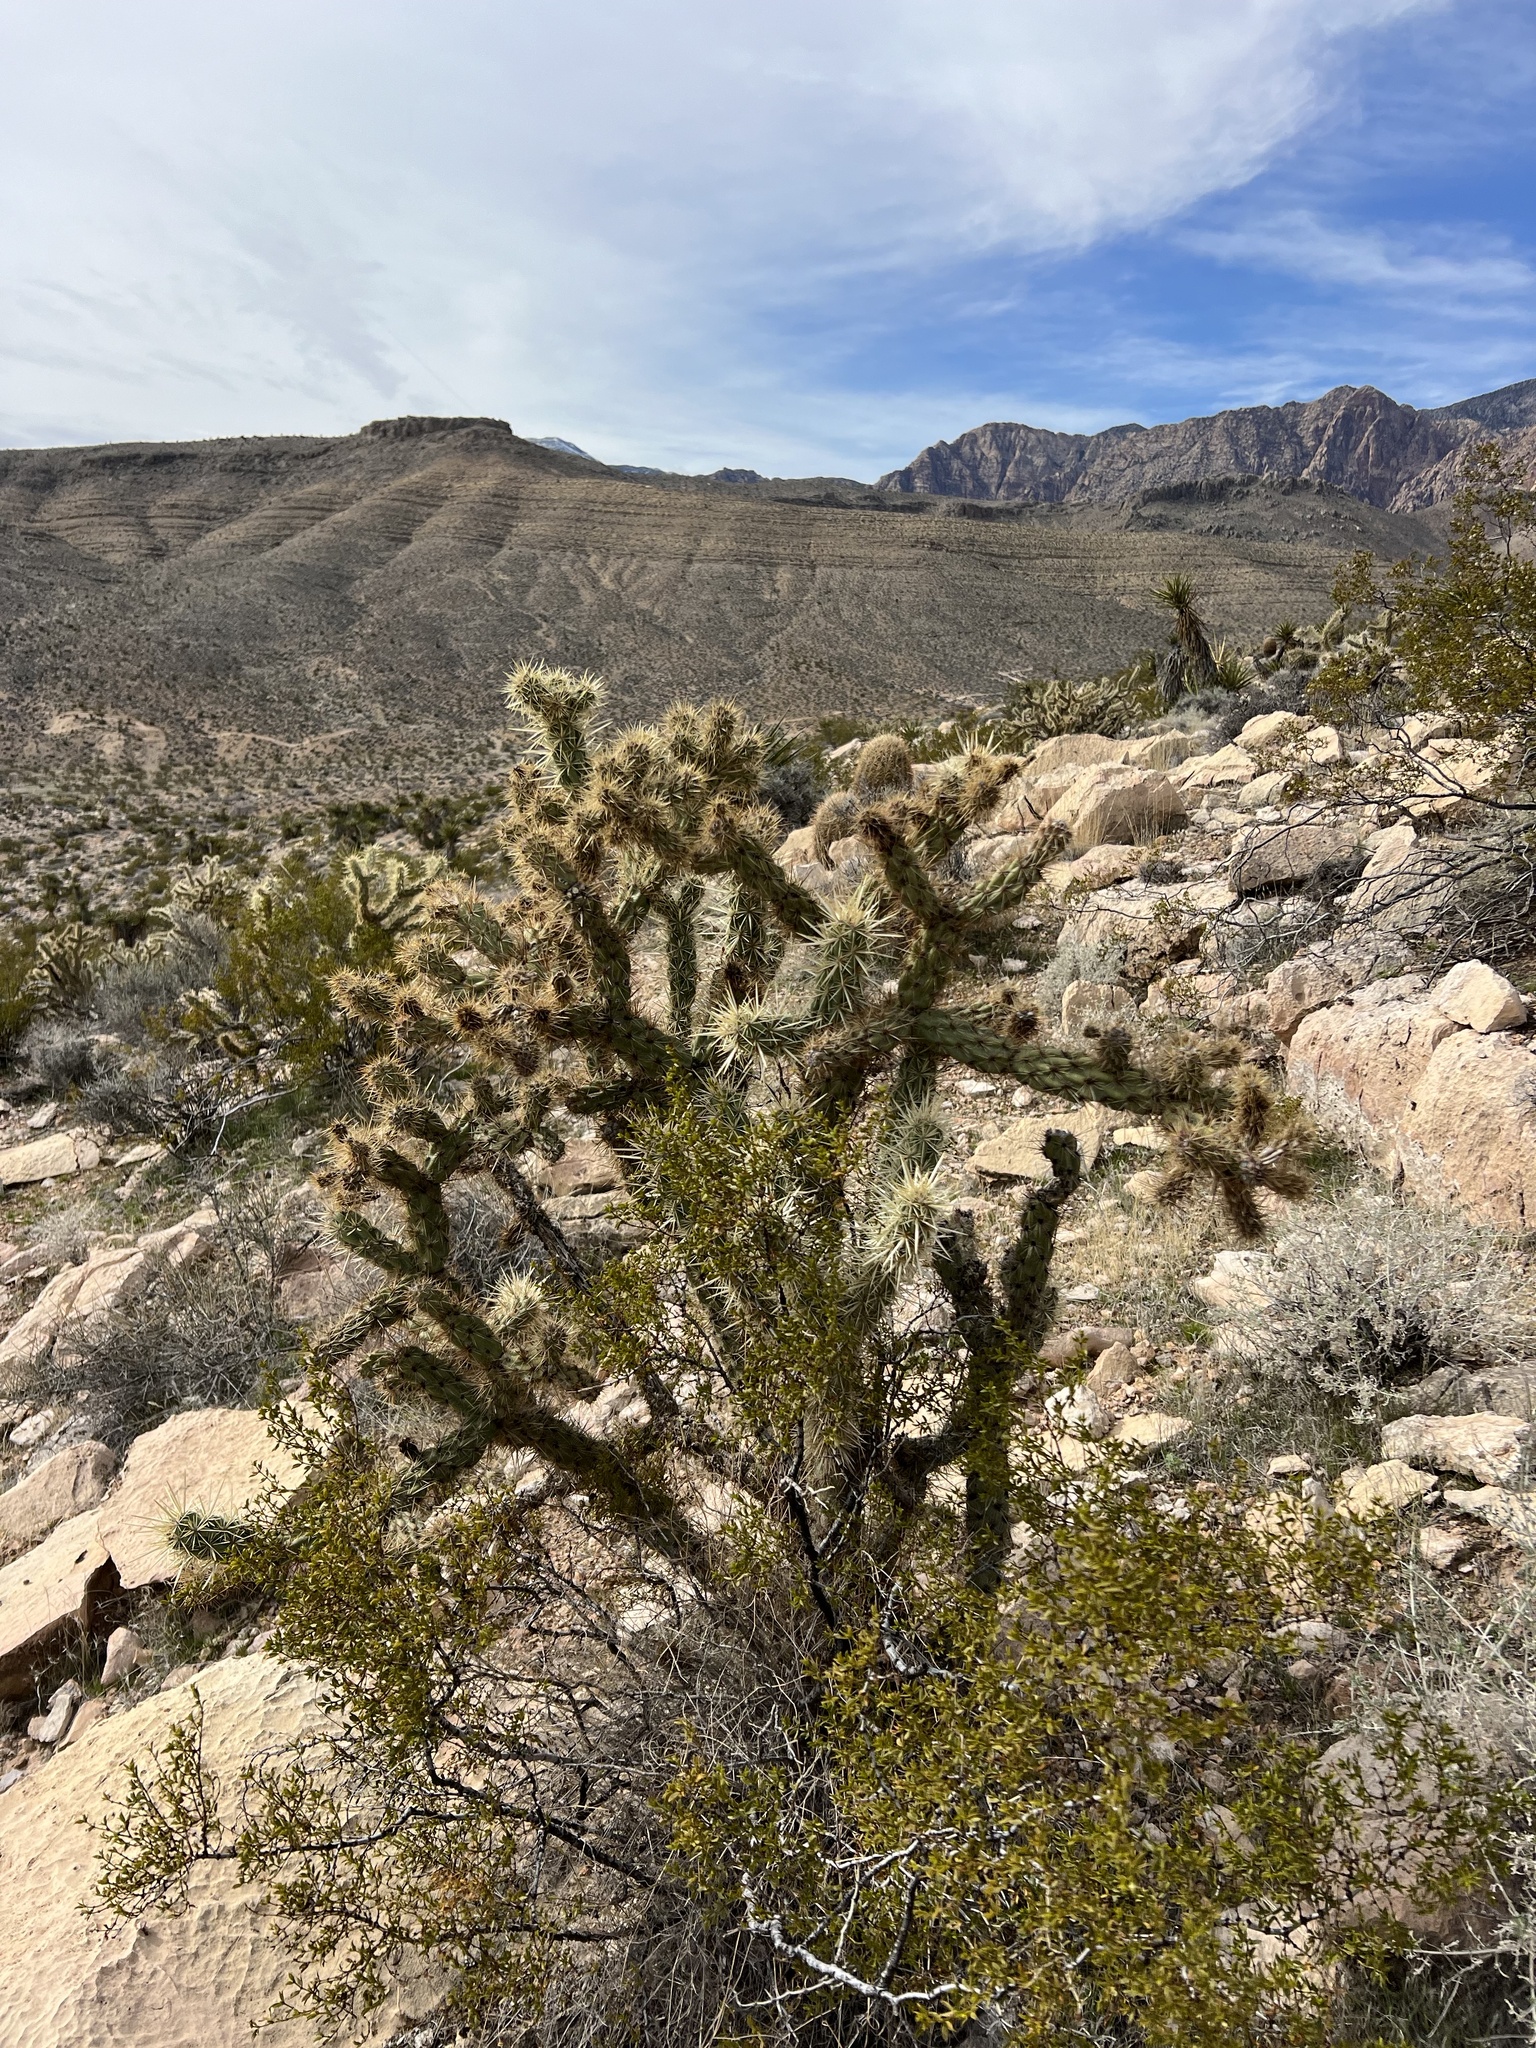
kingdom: Plantae
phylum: Tracheophyta
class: Magnoliopsida
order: Caryophyllales
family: Cactaceae
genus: Cylindropuntia
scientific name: Cylindropuntia acanthocarpa
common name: Buckhorn cholla
